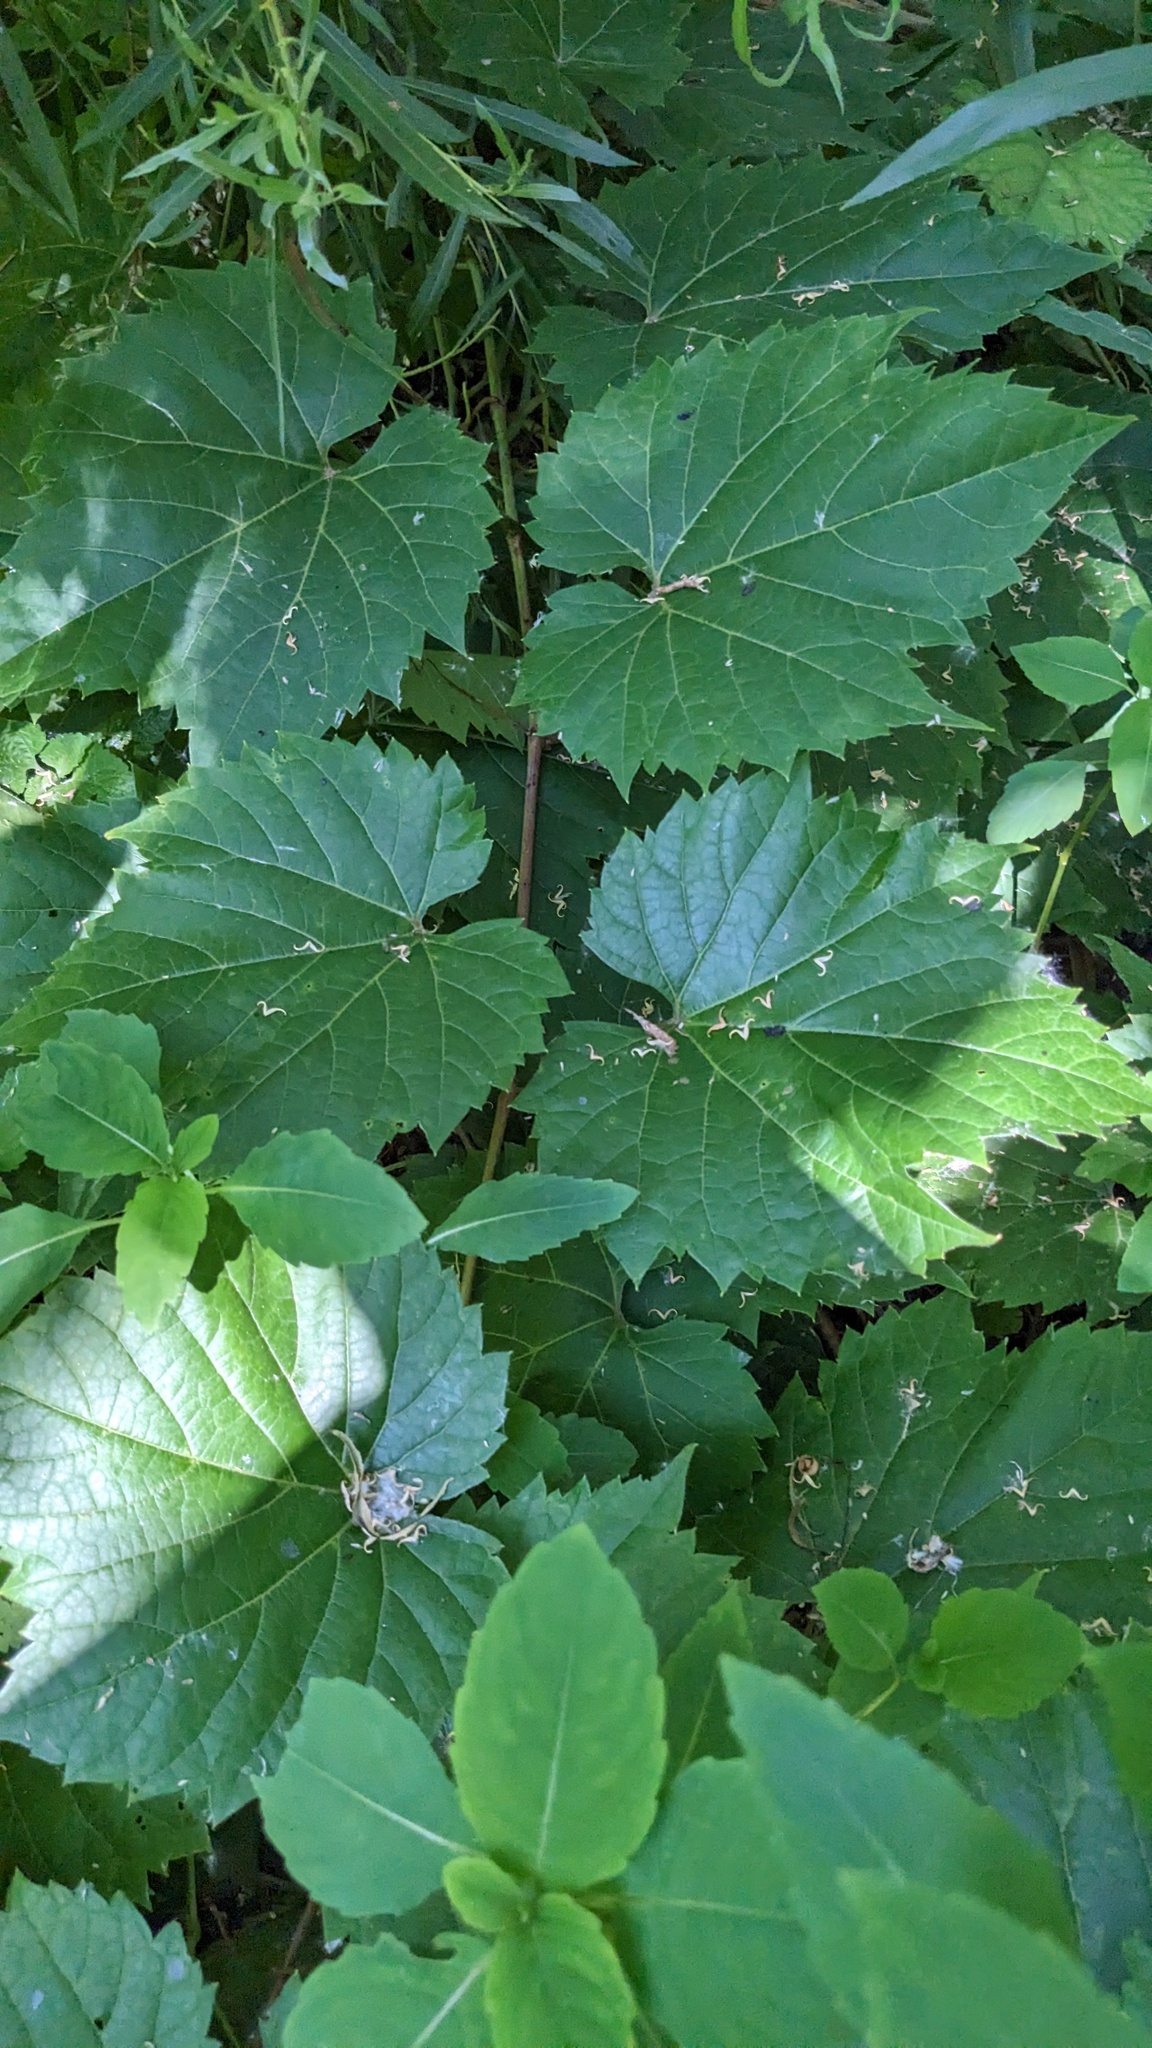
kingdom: Plantae
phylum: Tracheophyta
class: Magnoliopsida
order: Vitales
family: Vitaceae
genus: Vitis
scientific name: Vitis riparia
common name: Frost grape
